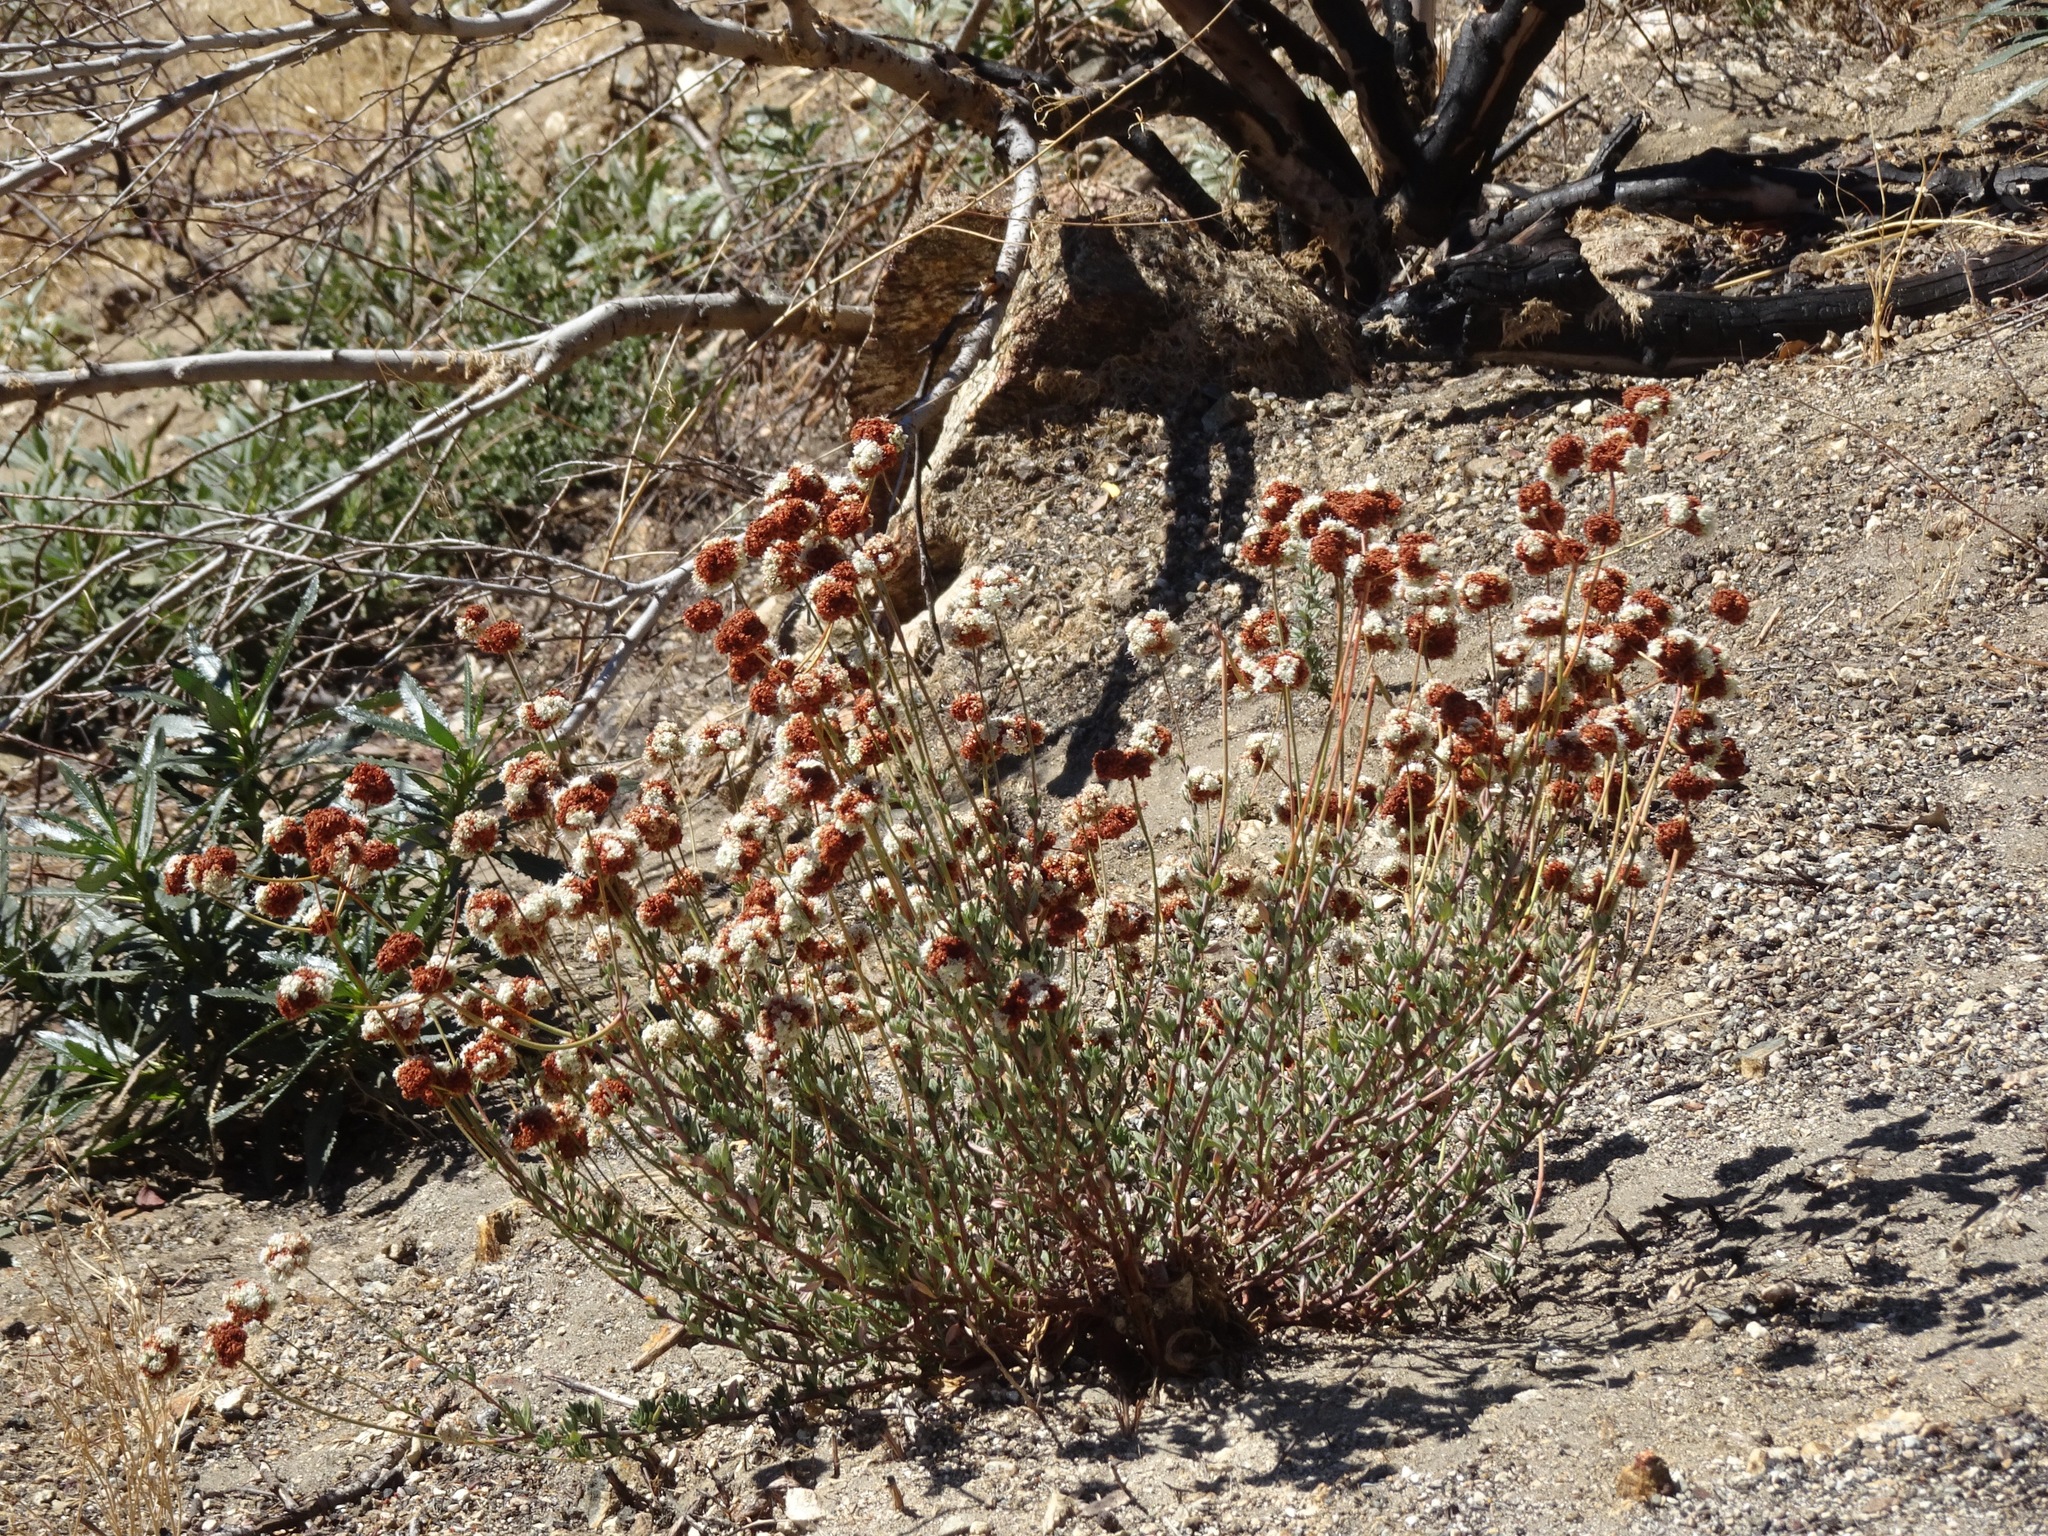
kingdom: Plantae
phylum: Tracheophyta
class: Magnoliopsida
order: Caryophyllales
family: Polygonaceae
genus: Eriogonum
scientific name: Eriogonum fasciculatum
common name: California wild buckwheat
